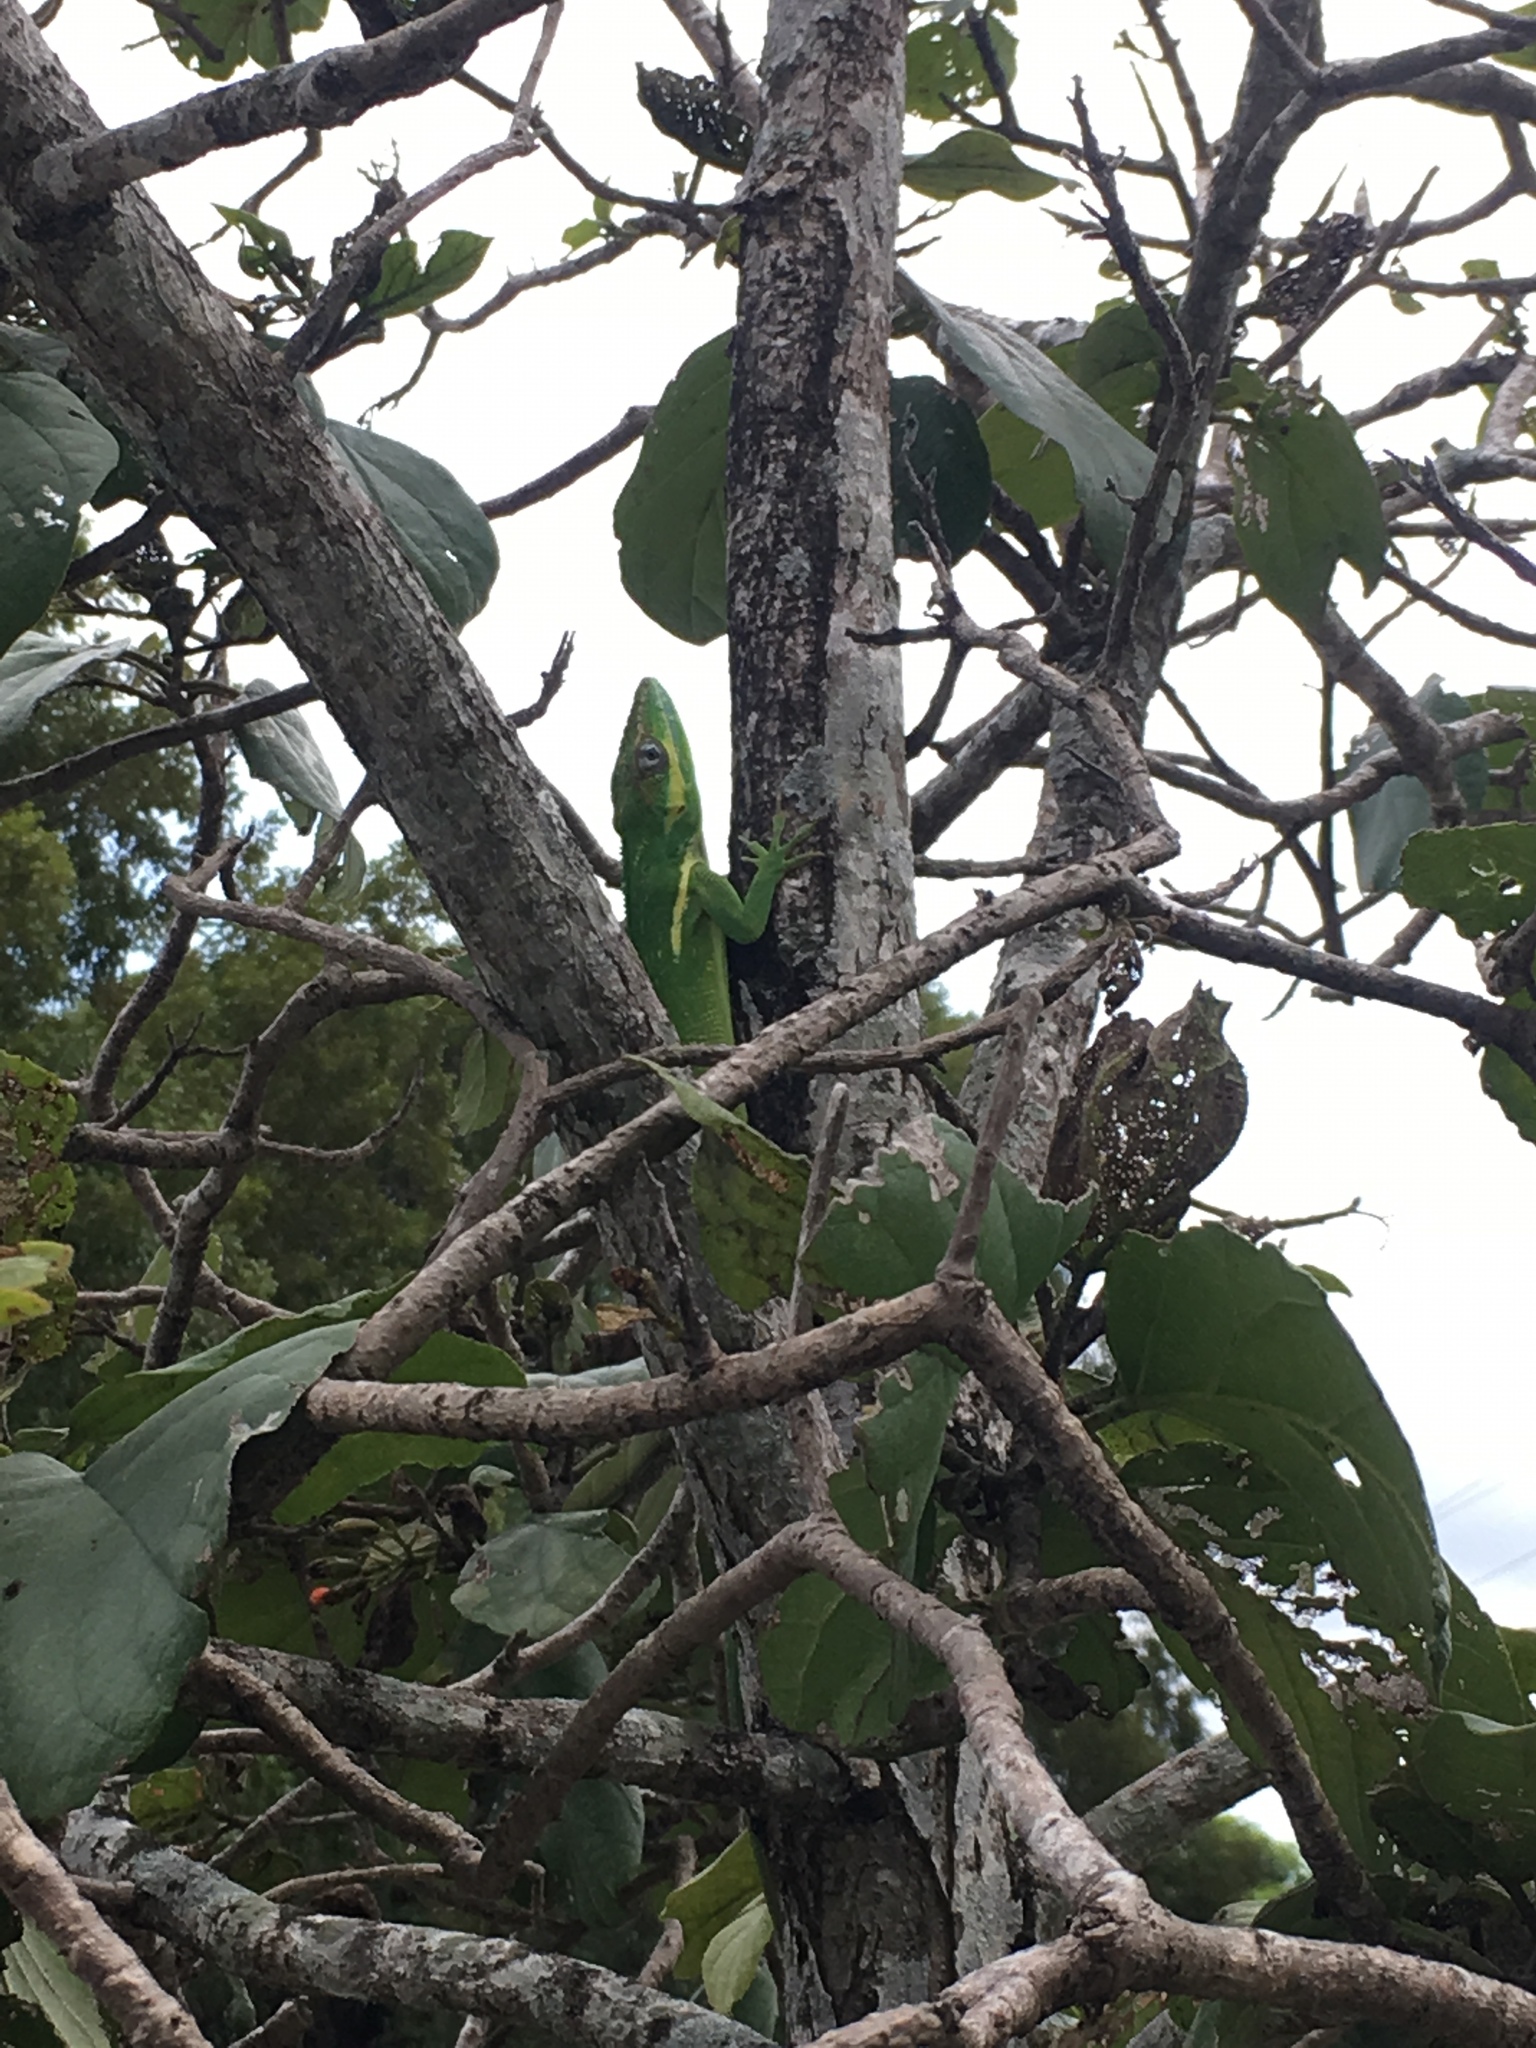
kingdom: Animalia
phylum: Chordata
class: Squamata
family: Dactyloidae
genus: Anolis
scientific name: Anolis equestris
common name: Knight anole
